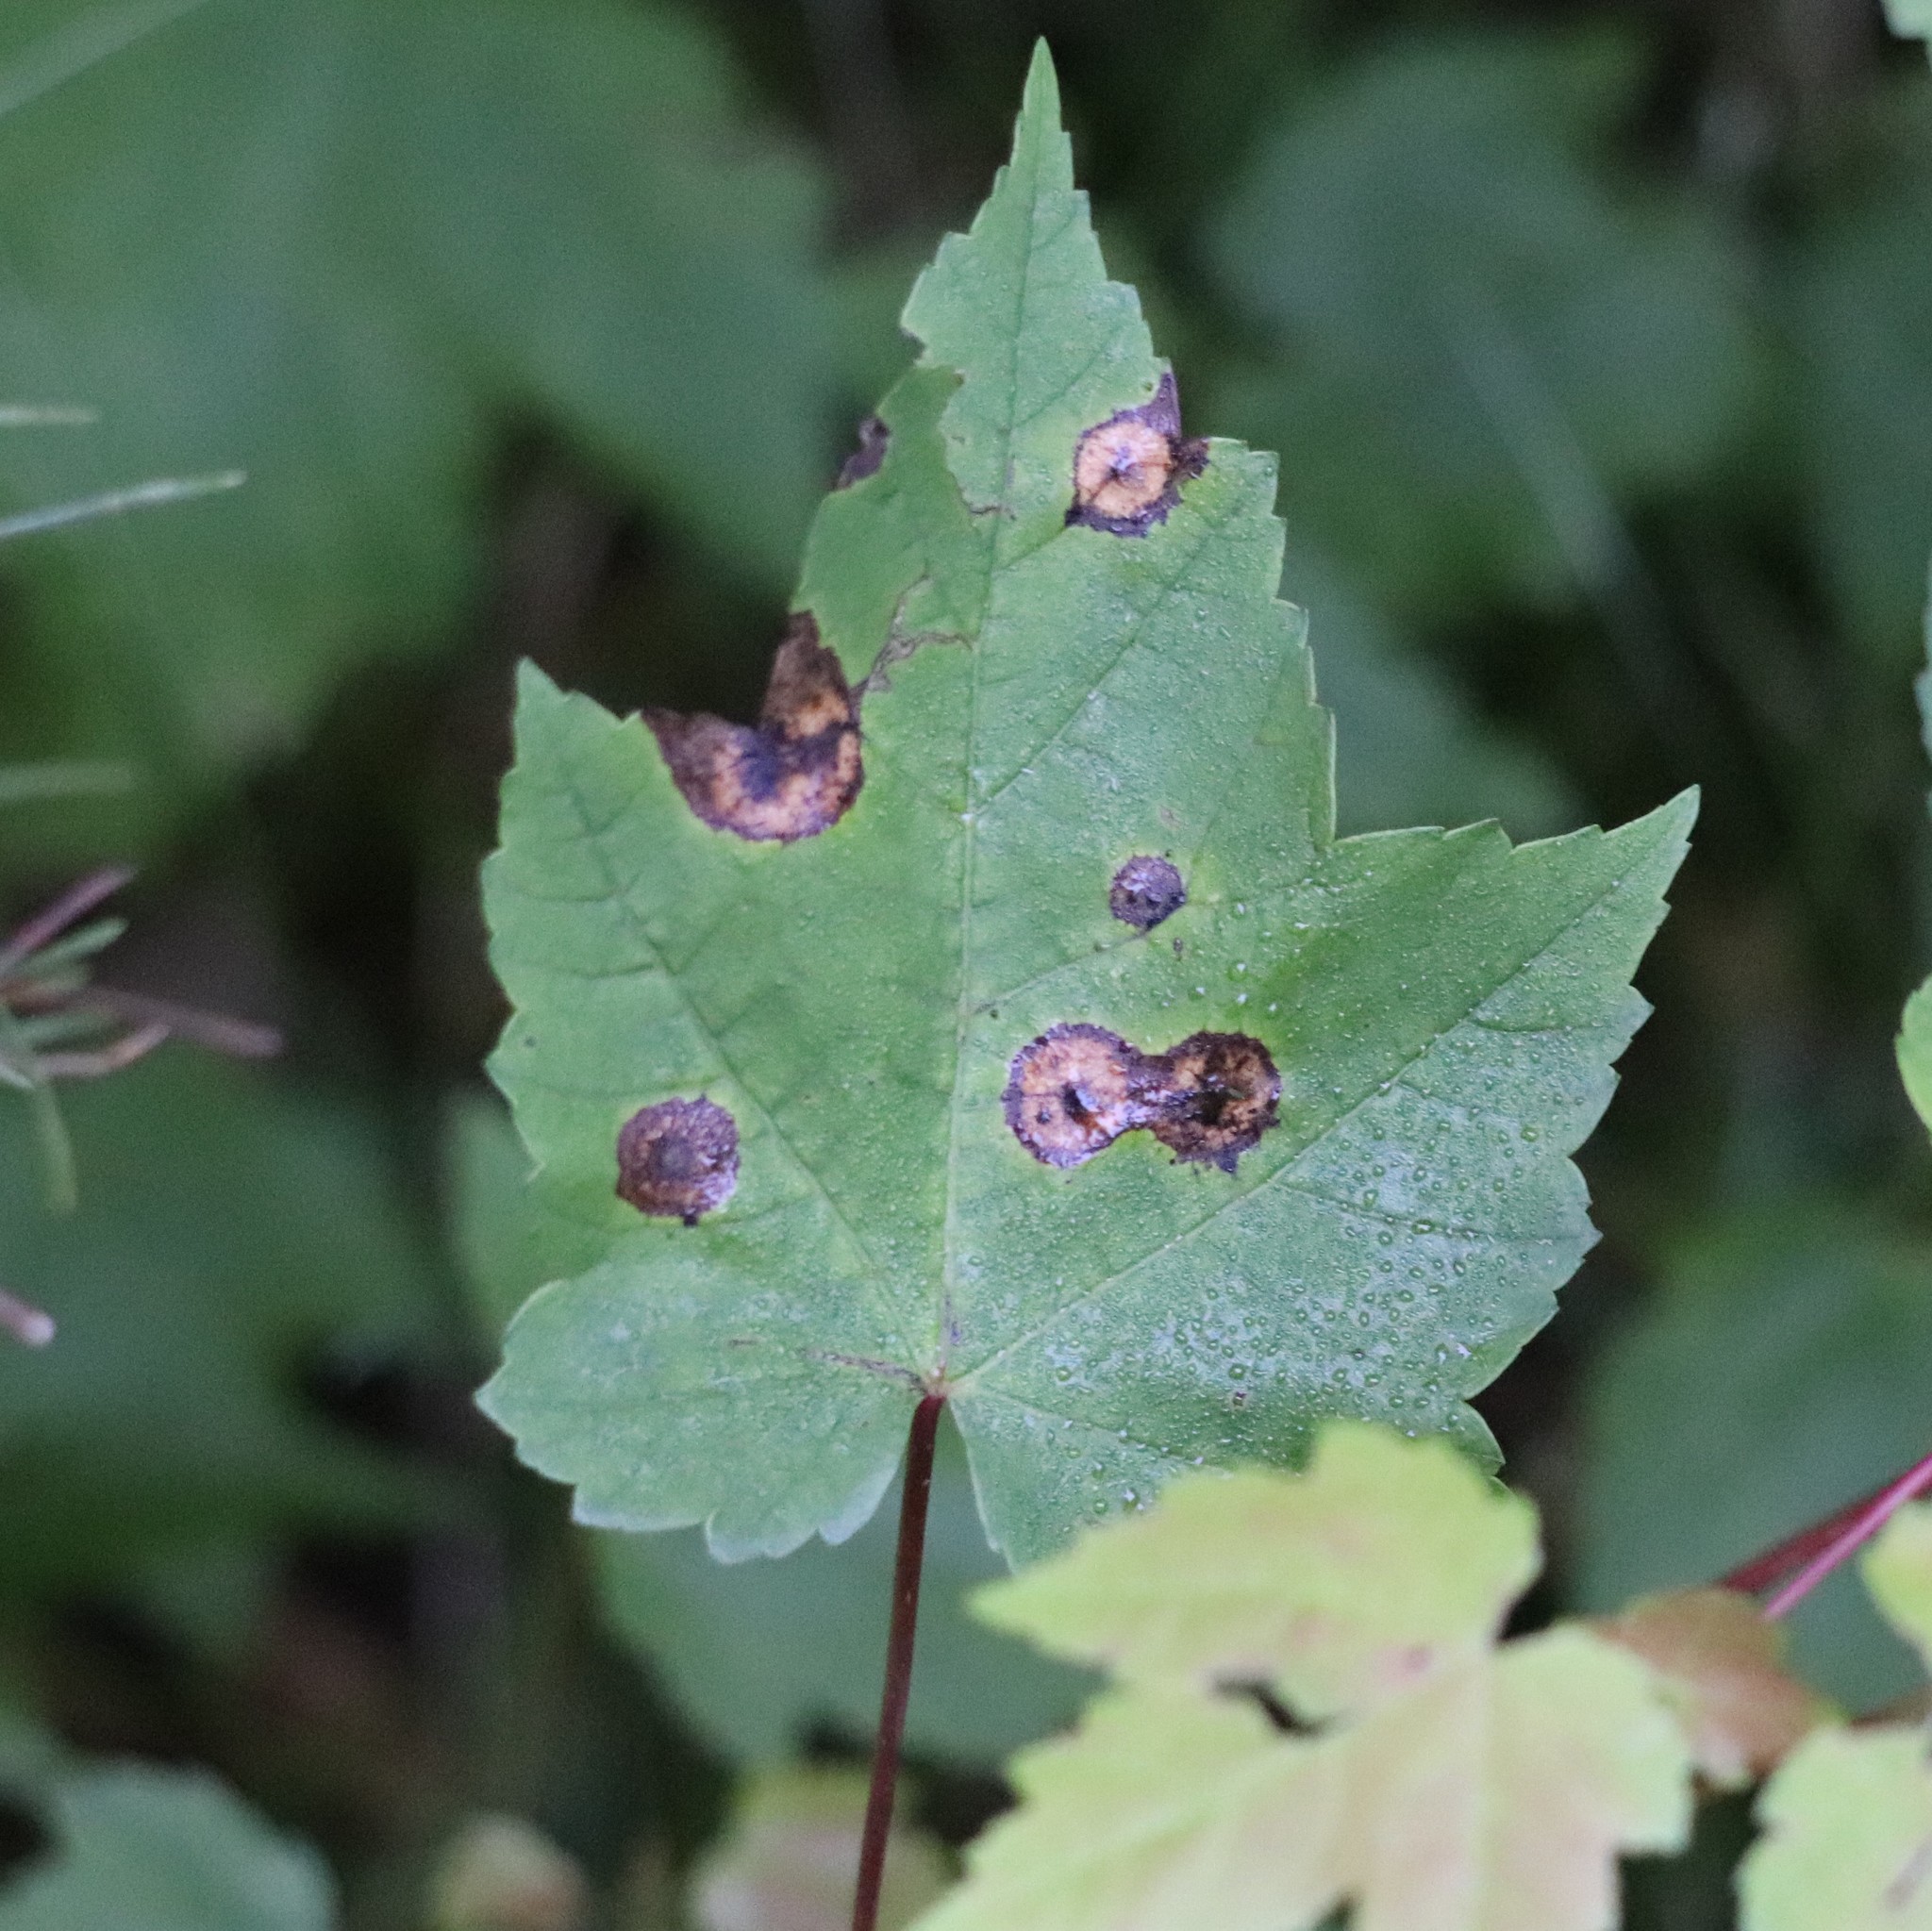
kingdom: Animalia
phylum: Arthropoda
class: Insecta
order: Diptera
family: Cecidomyiidae
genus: Acericecis
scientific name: Acericecis ocellaris
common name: Ocellate gall midge
